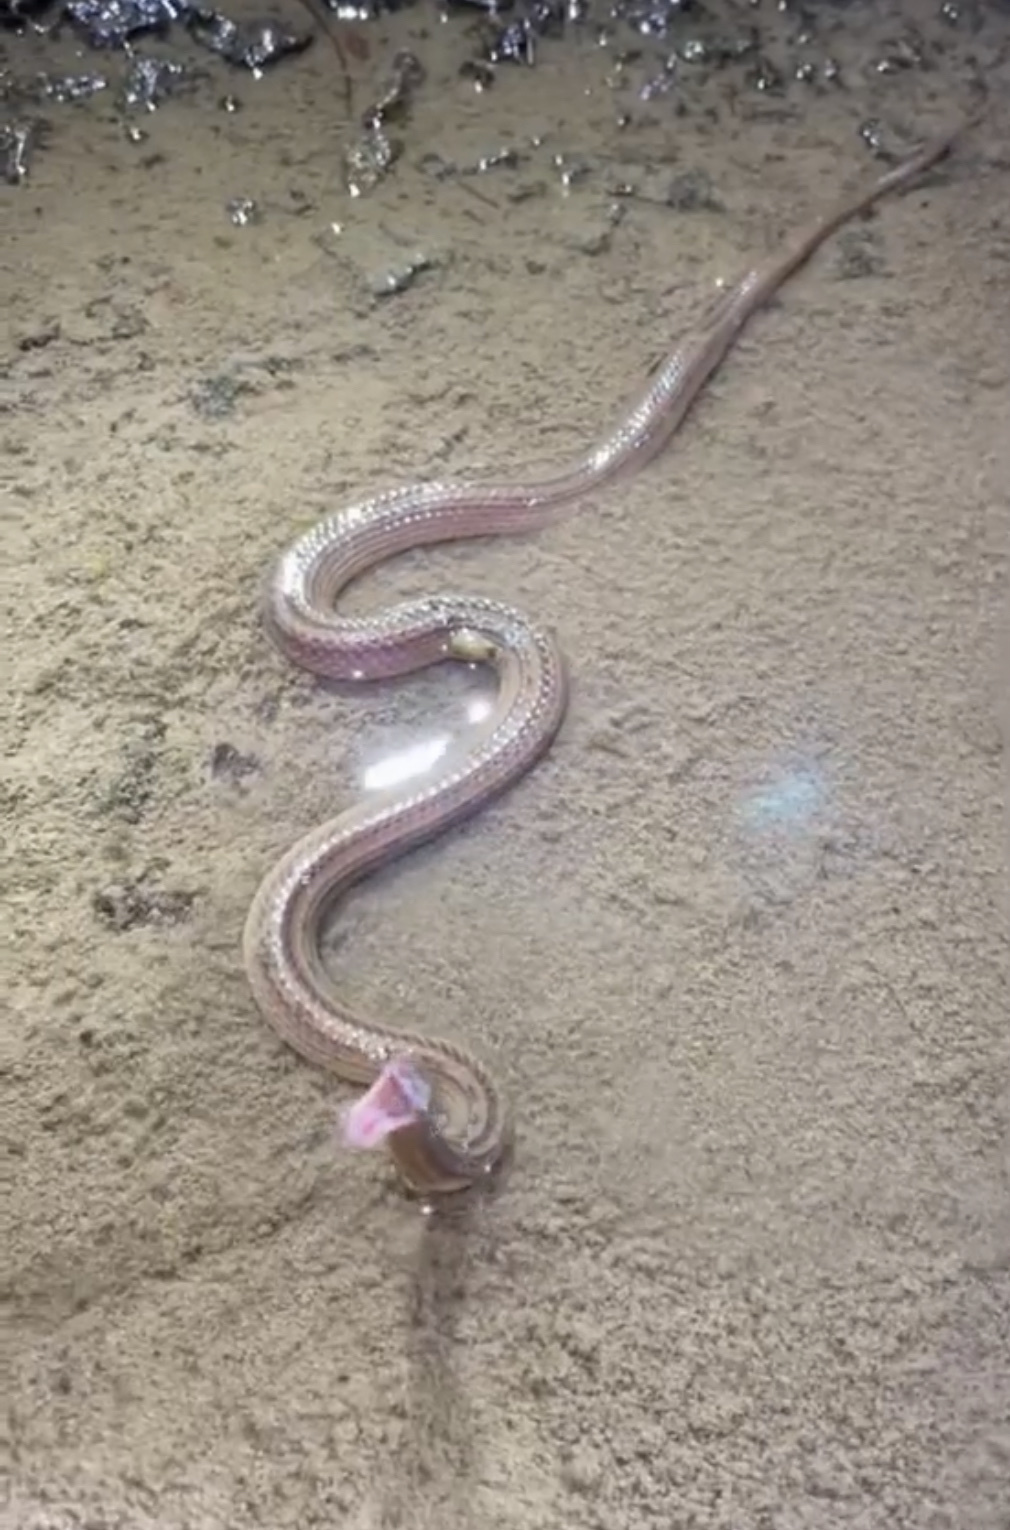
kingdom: Animalia
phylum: Chordata
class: Squamata
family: Colubridae
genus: Opisthotropis
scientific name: Opisthotropis kuatunensis
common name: Chinese mountain keelback
